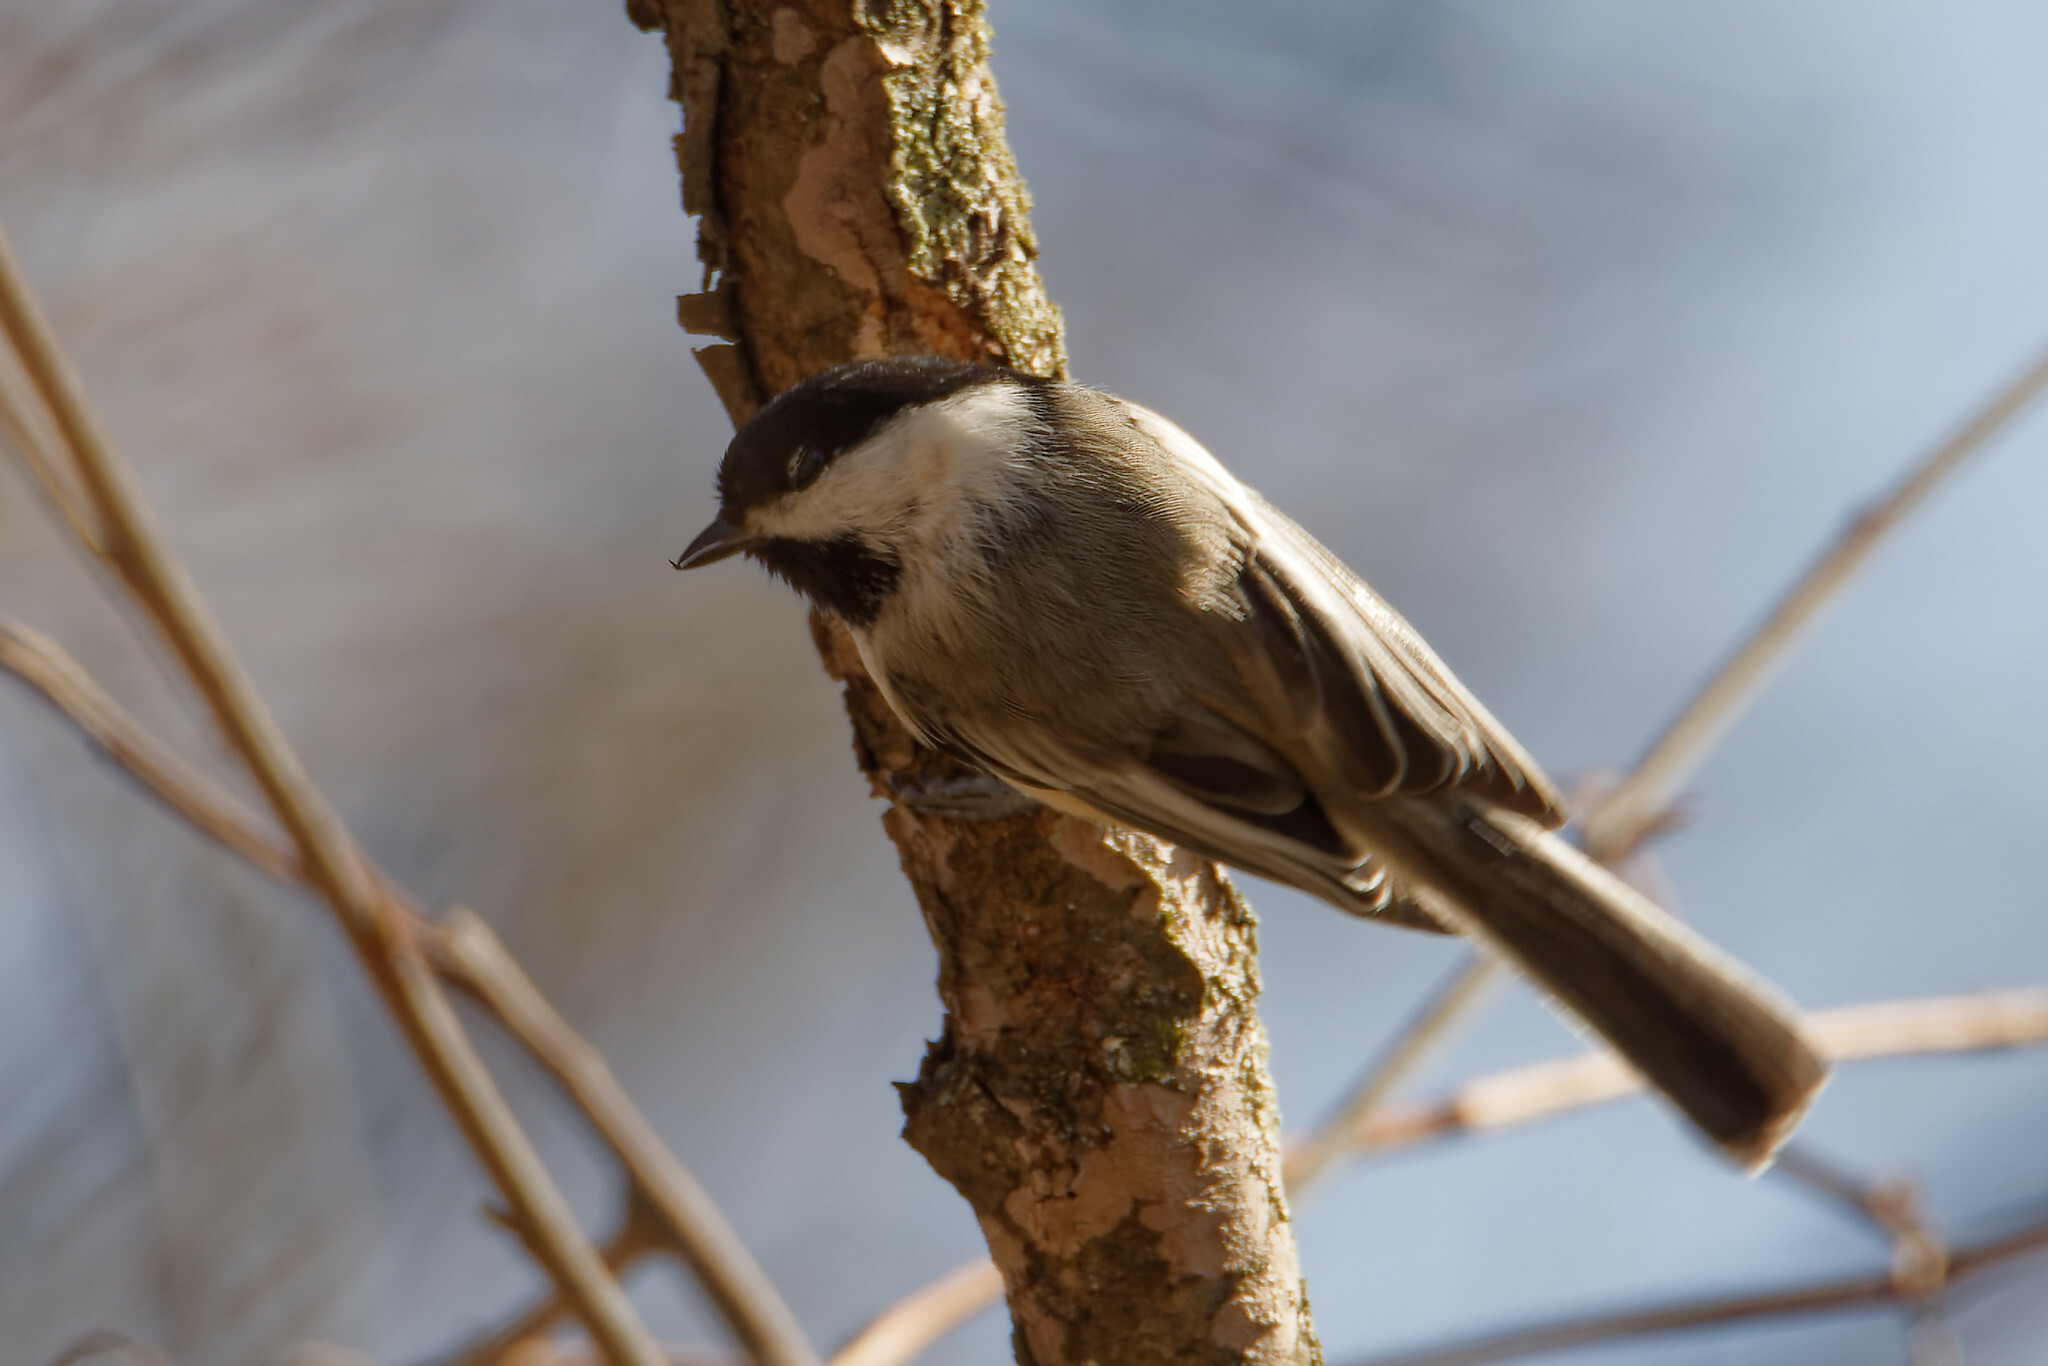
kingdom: Animalia
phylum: Chordata
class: Aves
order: Passeriformes
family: Paridae
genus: Poecile
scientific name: Poecile atricapillus
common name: Black-capped chickadee
